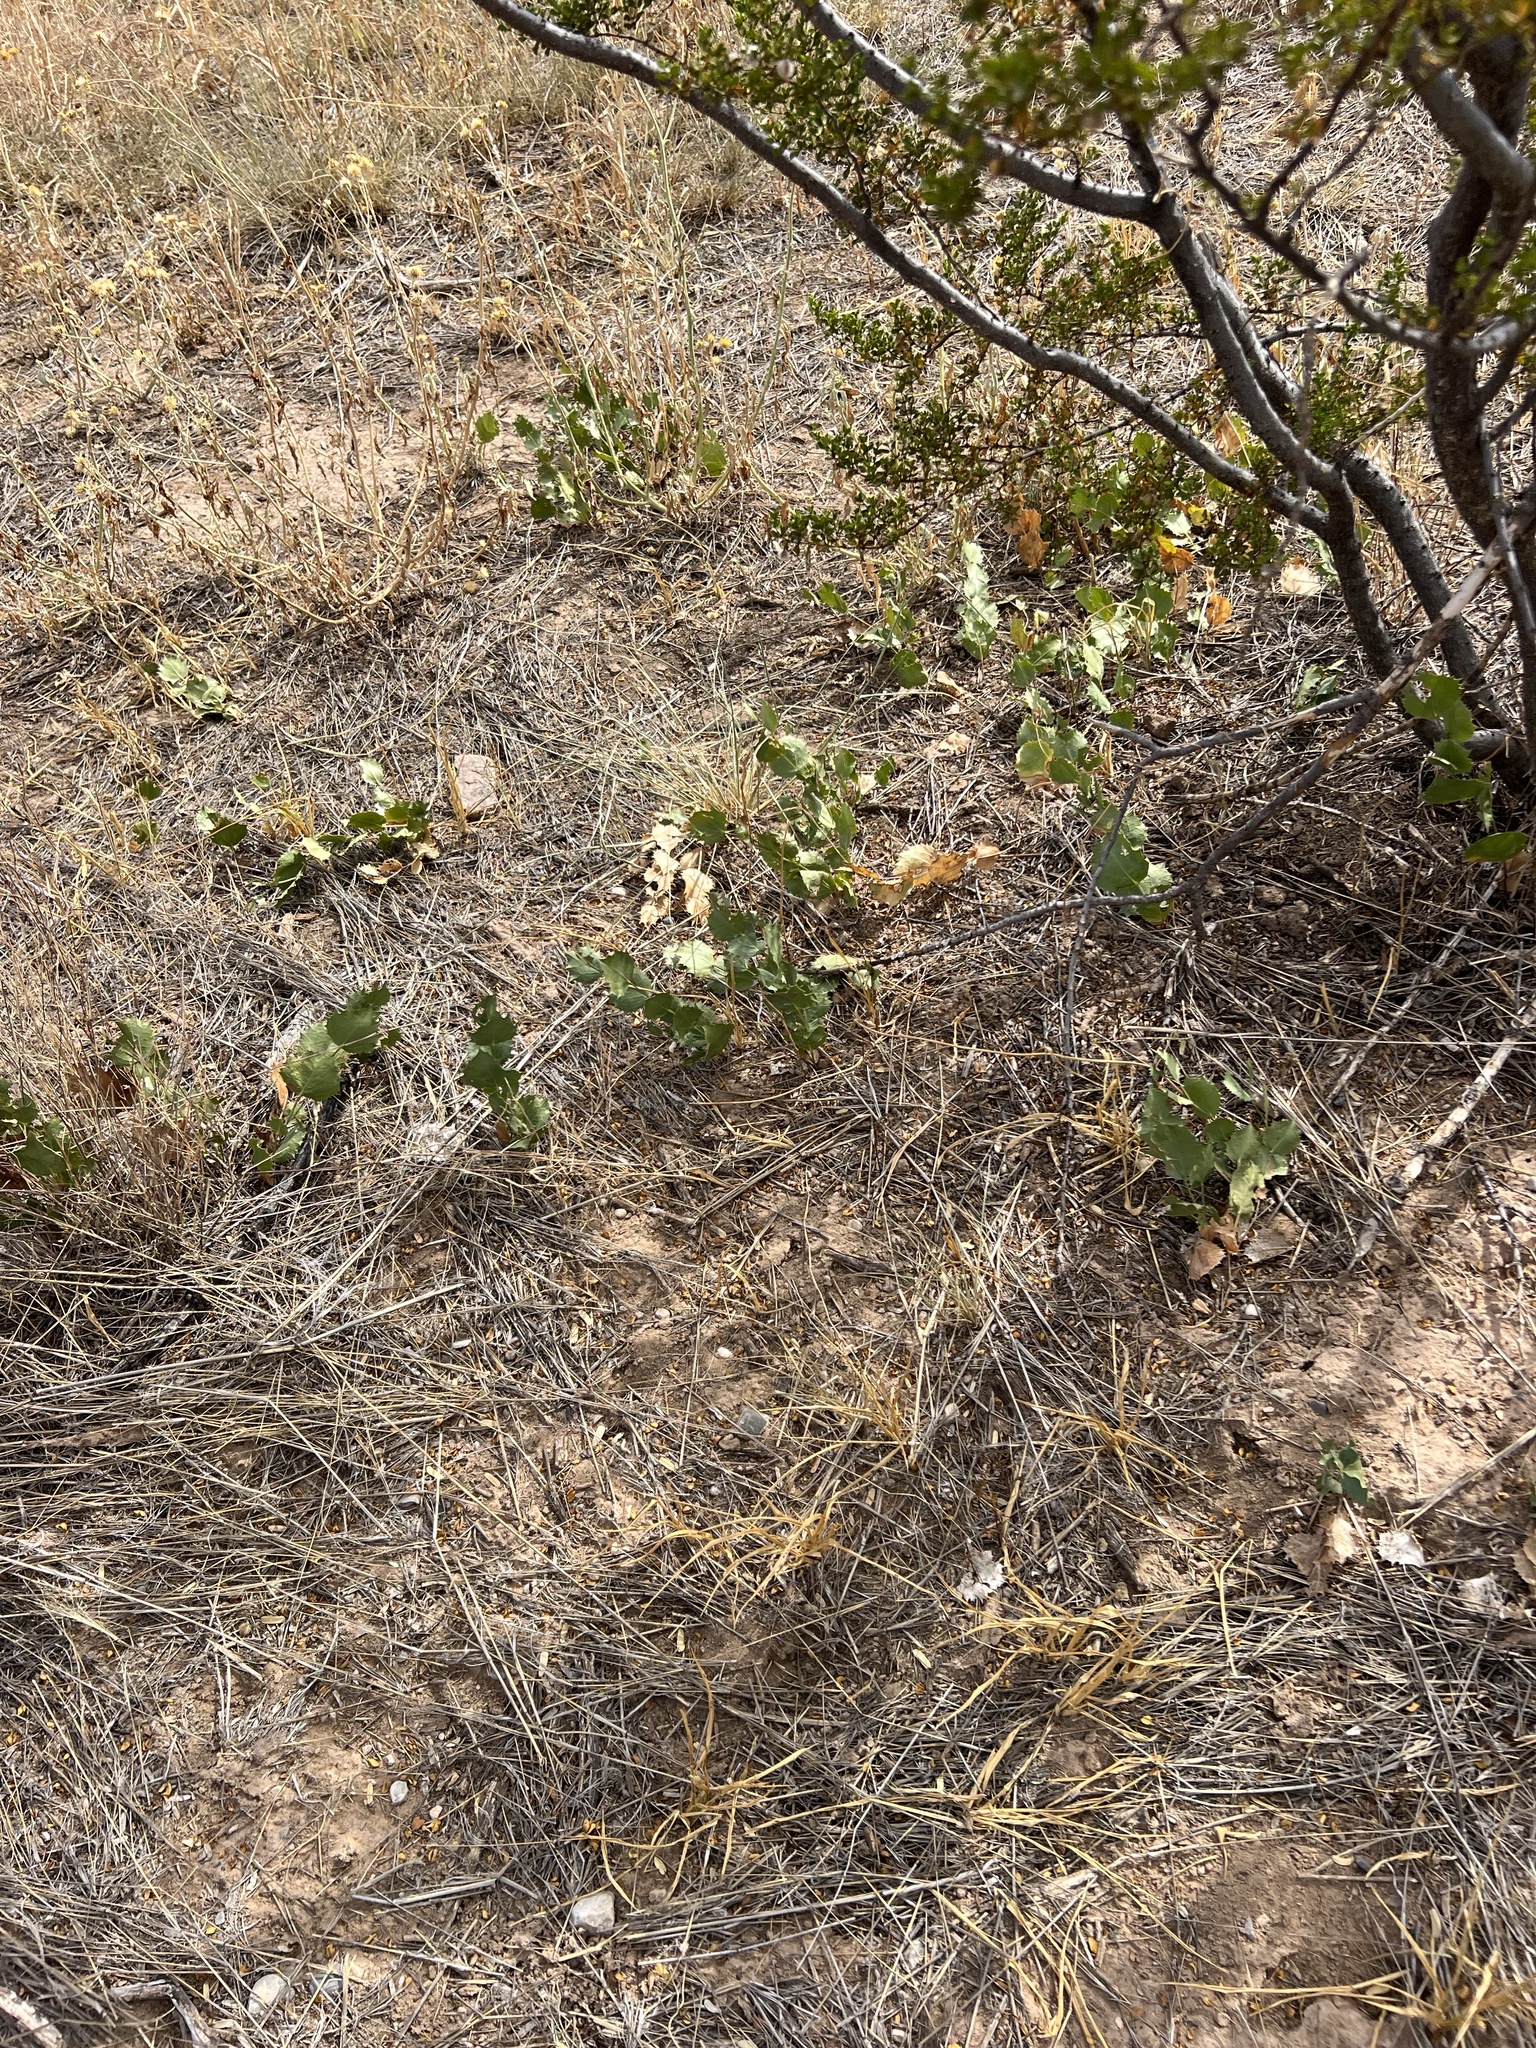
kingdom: Plantae
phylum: Tracheophyta
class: Magnoliopsida
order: Asterales
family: Asteraceae
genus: Acourtia
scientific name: Acourtia nana
